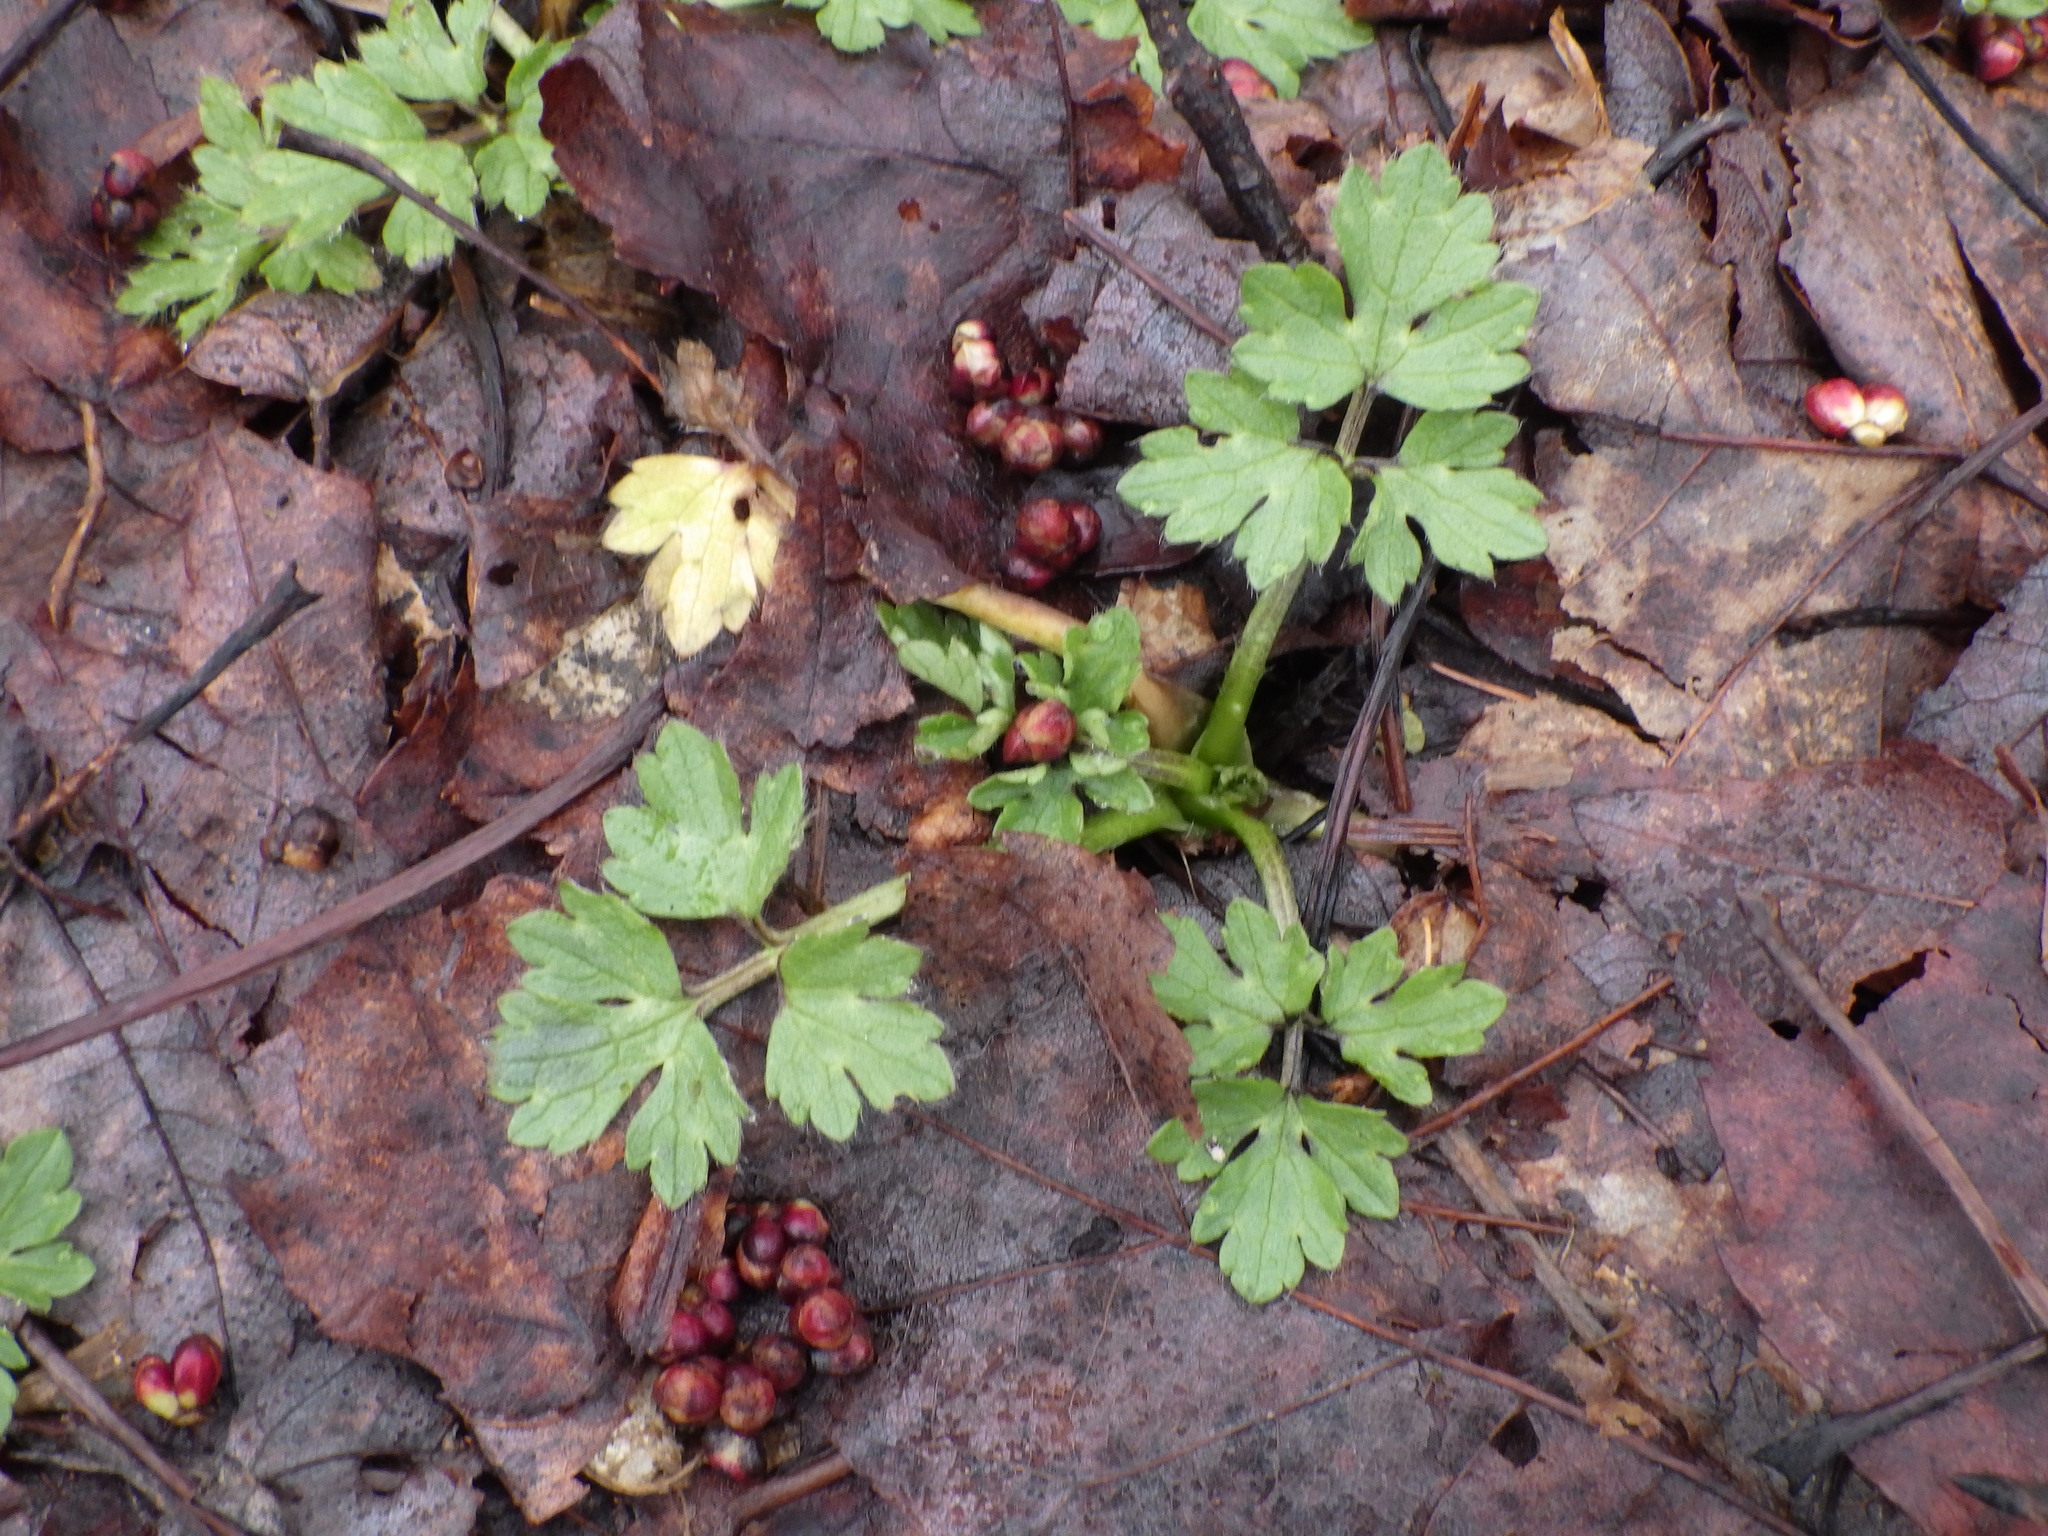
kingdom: Plantae
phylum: Tracheophyta
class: Magnoliopsida
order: Ranunculales
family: Ranunculaceae
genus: Ranunculus
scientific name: Ranunculus repens
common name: Creeping buttercup
